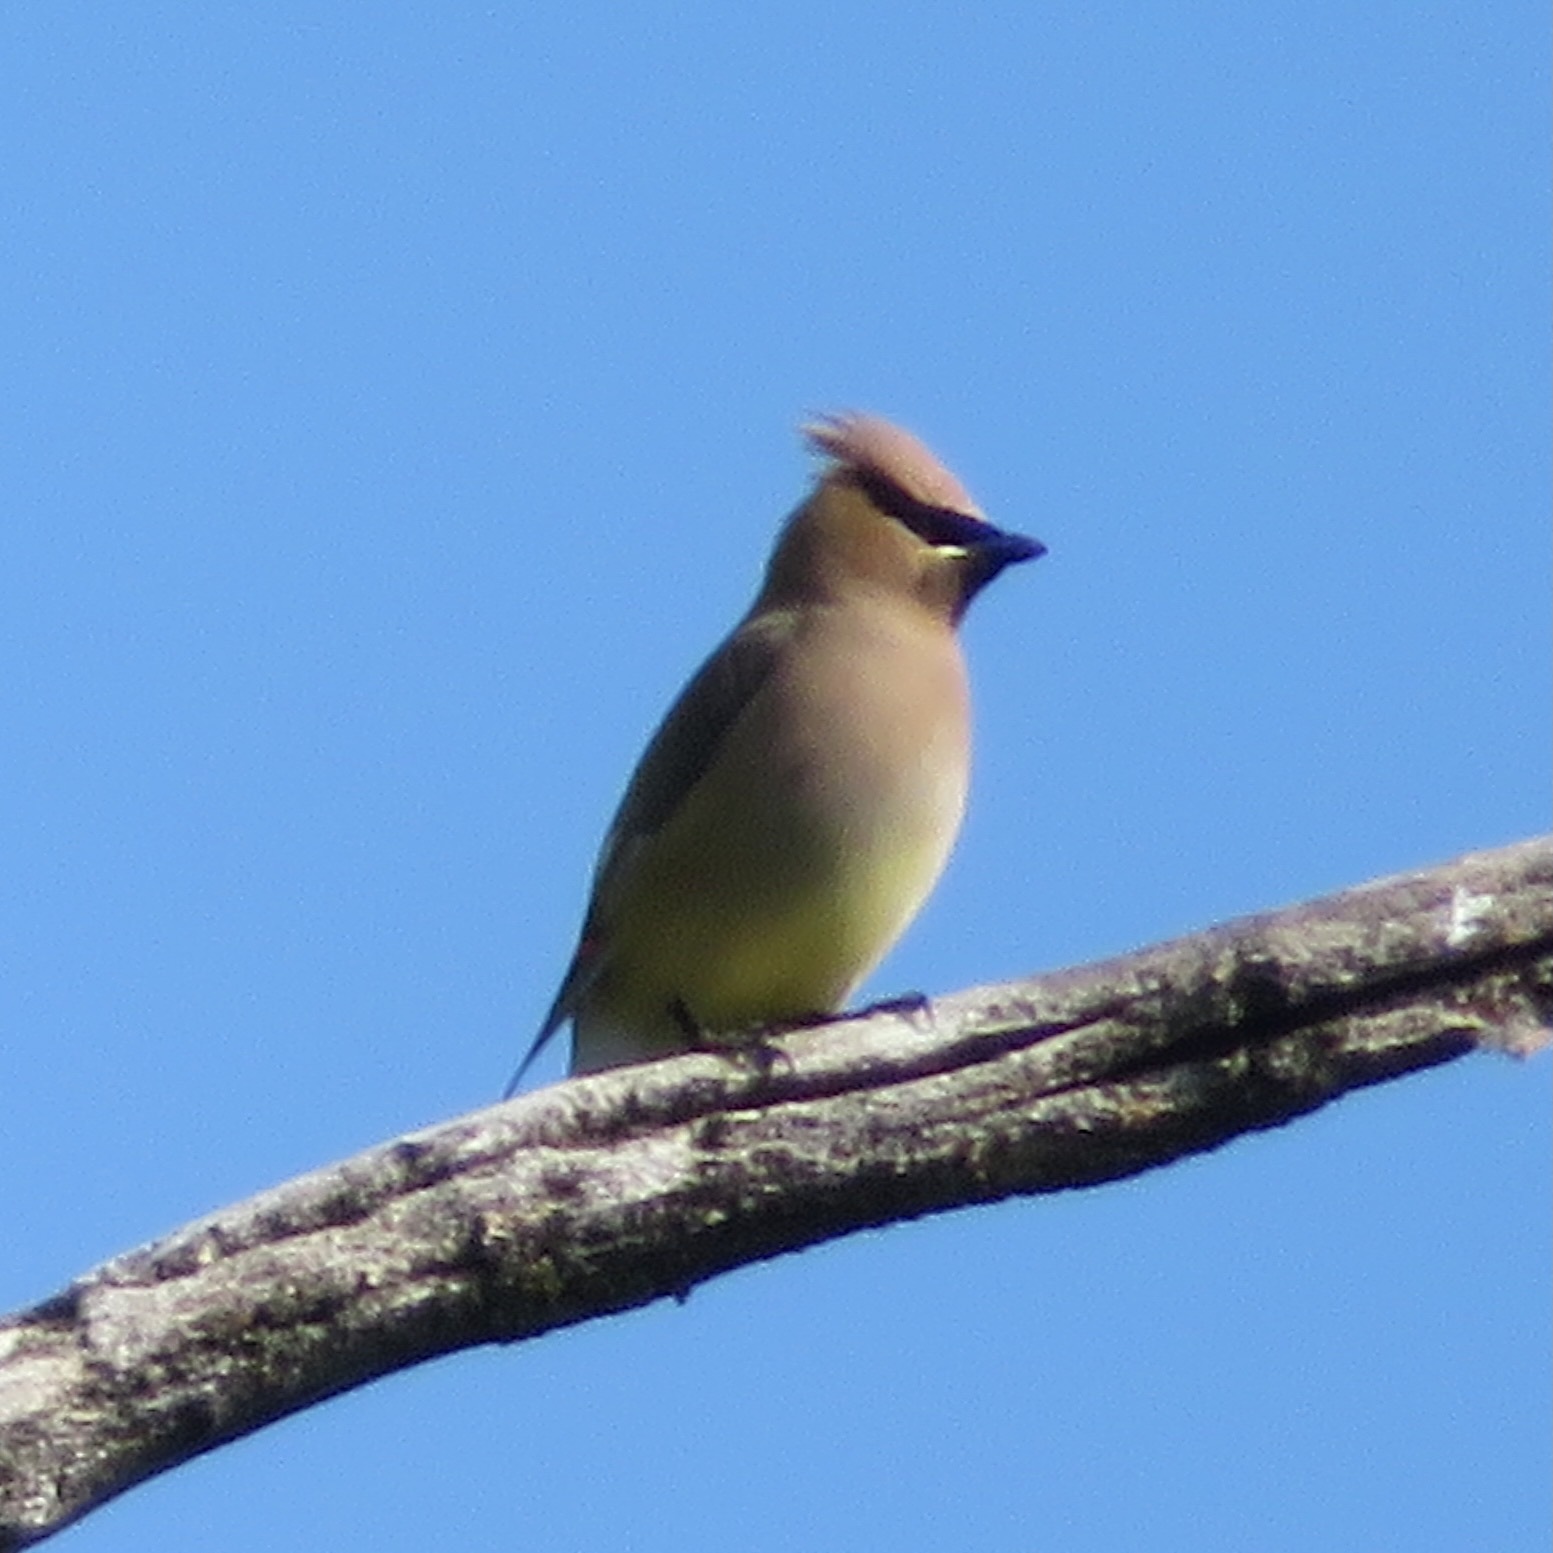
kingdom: Animalia
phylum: Chordata
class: Aves
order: Passeriformes
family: Bombycillidae
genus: Bombycilla
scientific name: Bombycilla cedrorum
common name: Cedar waxwing
